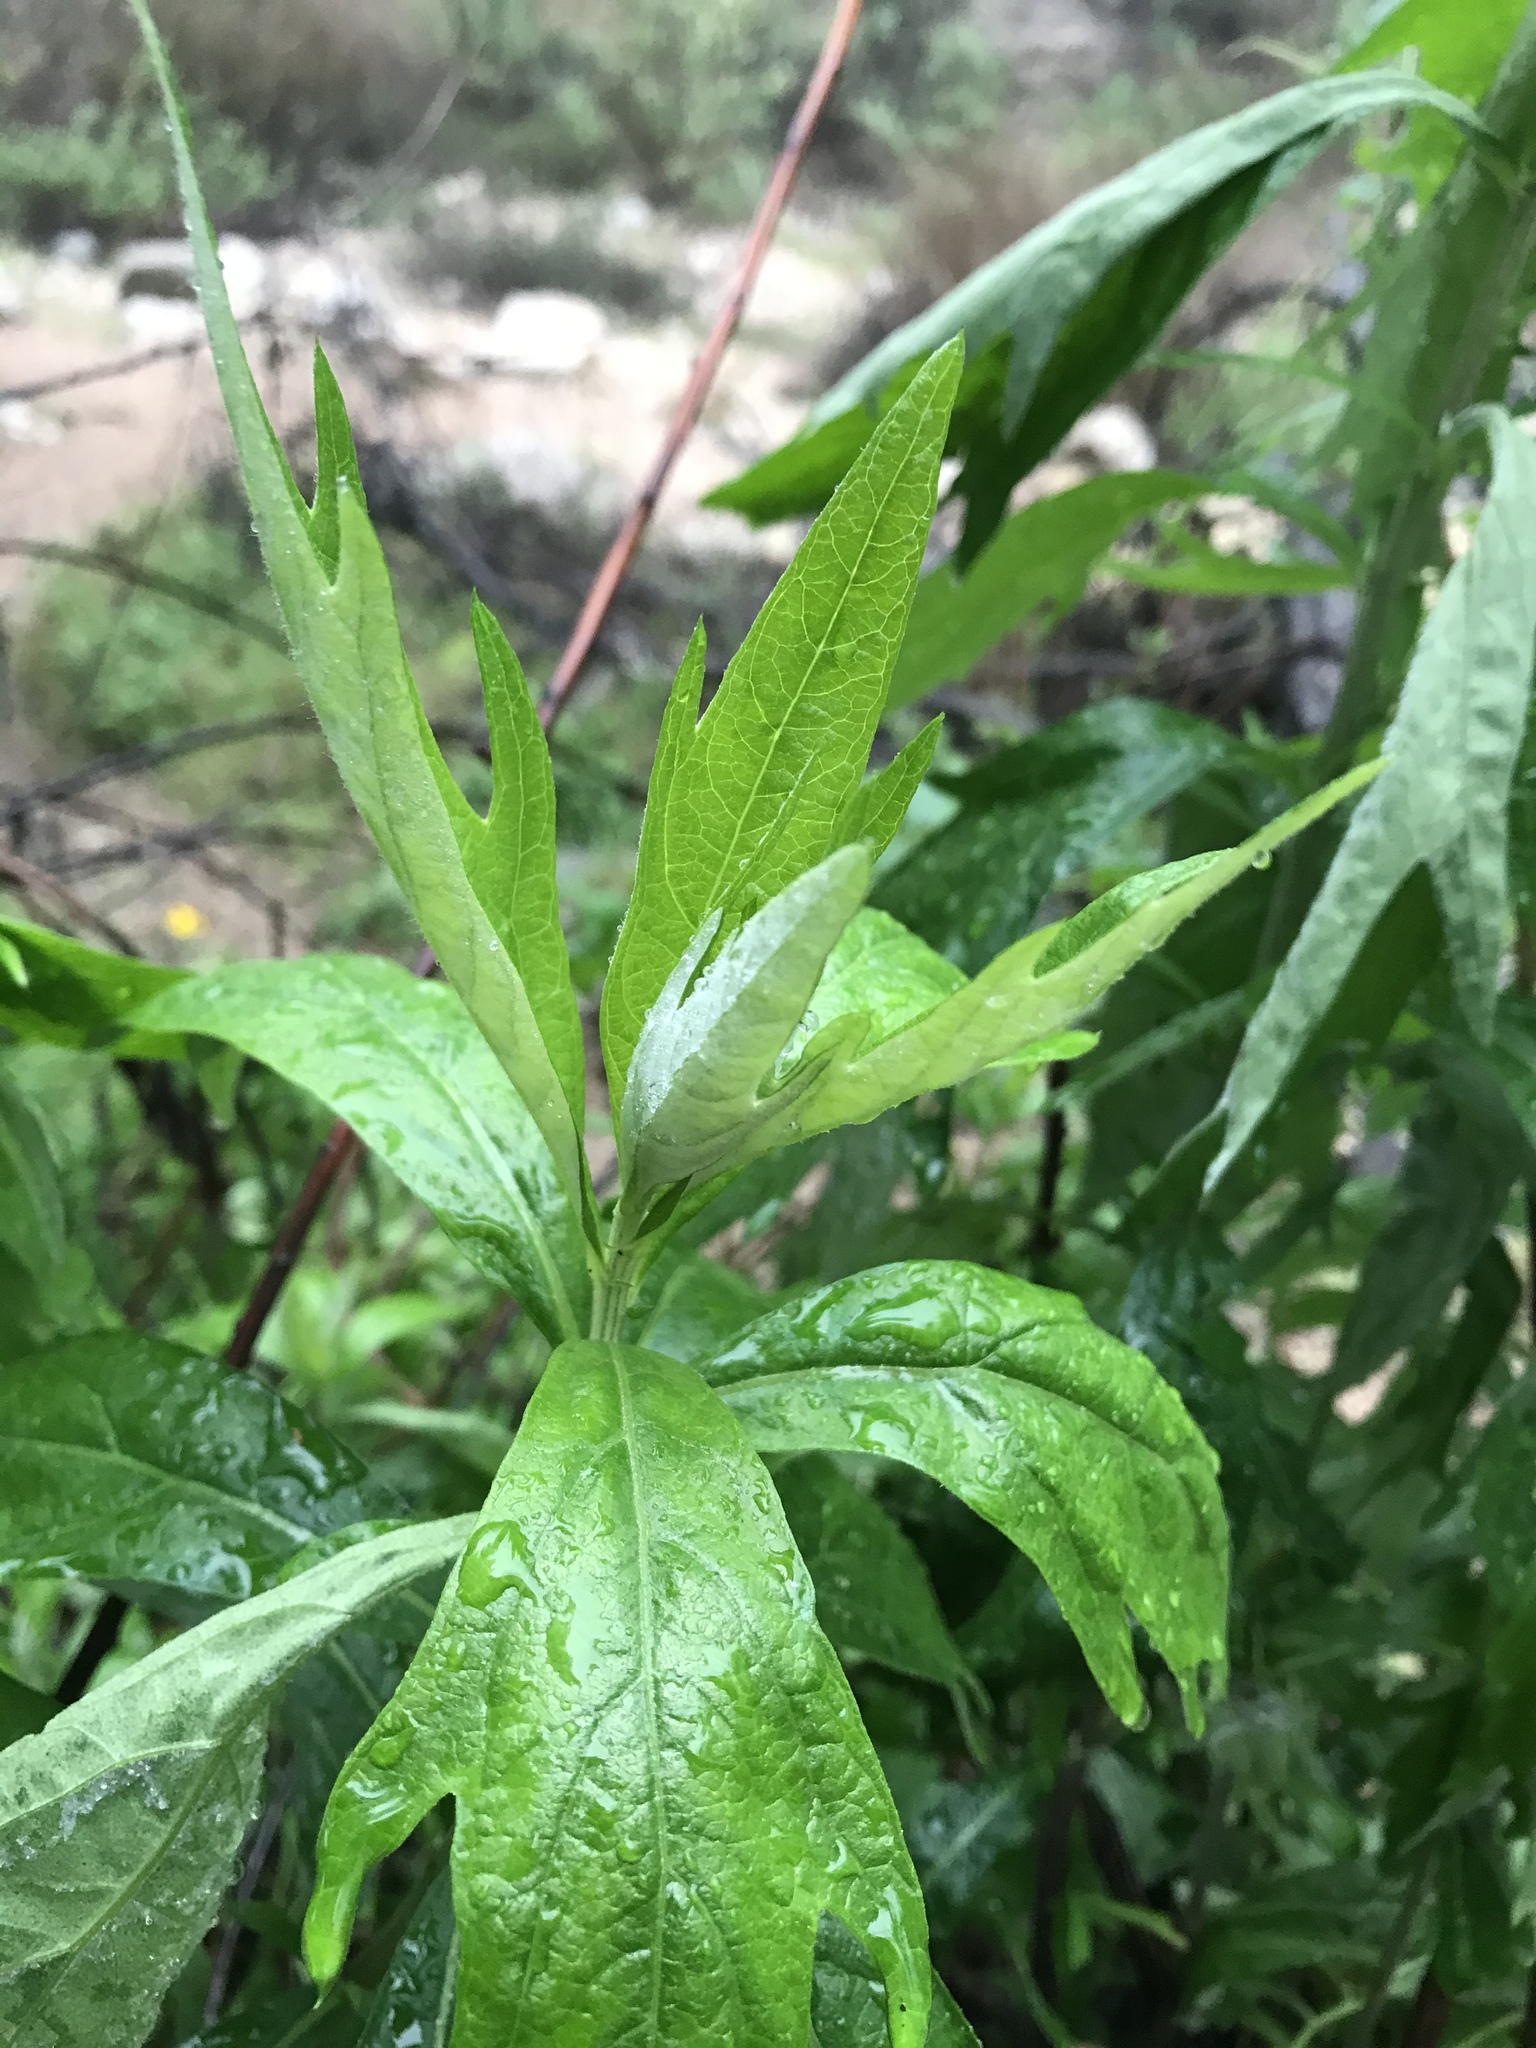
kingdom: Plantae
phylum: Tracheophyta
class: Magnoliopsida
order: Asterales
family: Asteraceae
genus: Artemisia
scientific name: Artemisia douglasiana
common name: Northwest mugwort
